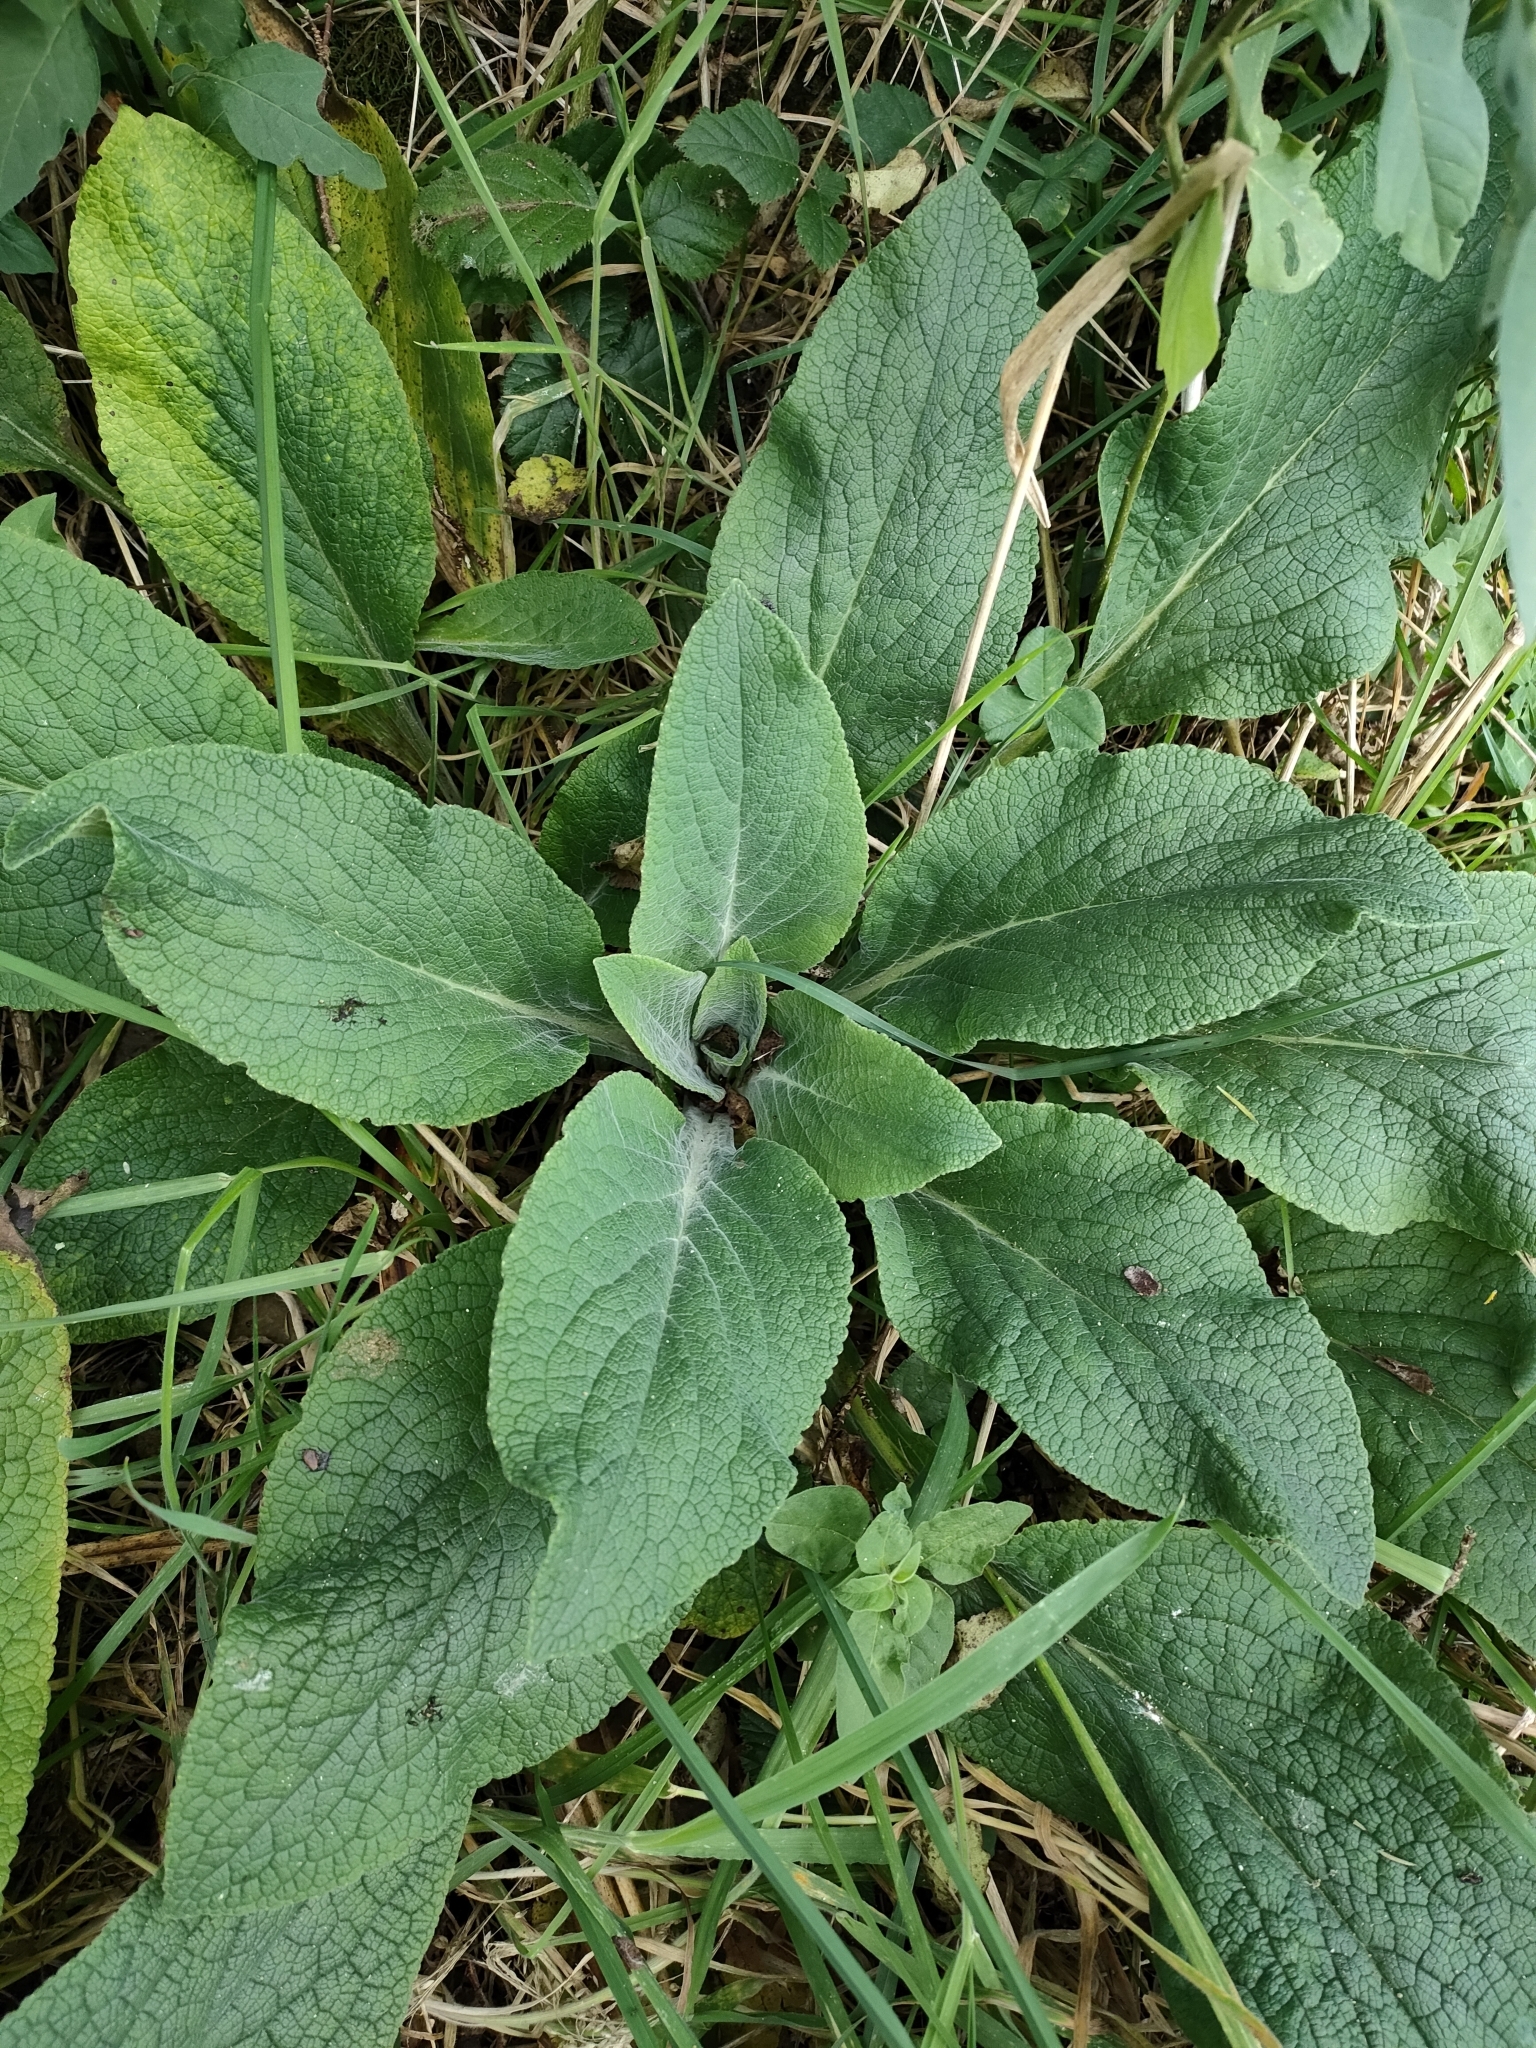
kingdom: Plantae
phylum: Tracheophyta
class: Magnoliopsida
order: Lamiales
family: Plantaginaceae
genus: Digitalis
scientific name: Digitalis purpurea
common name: Foxglove
